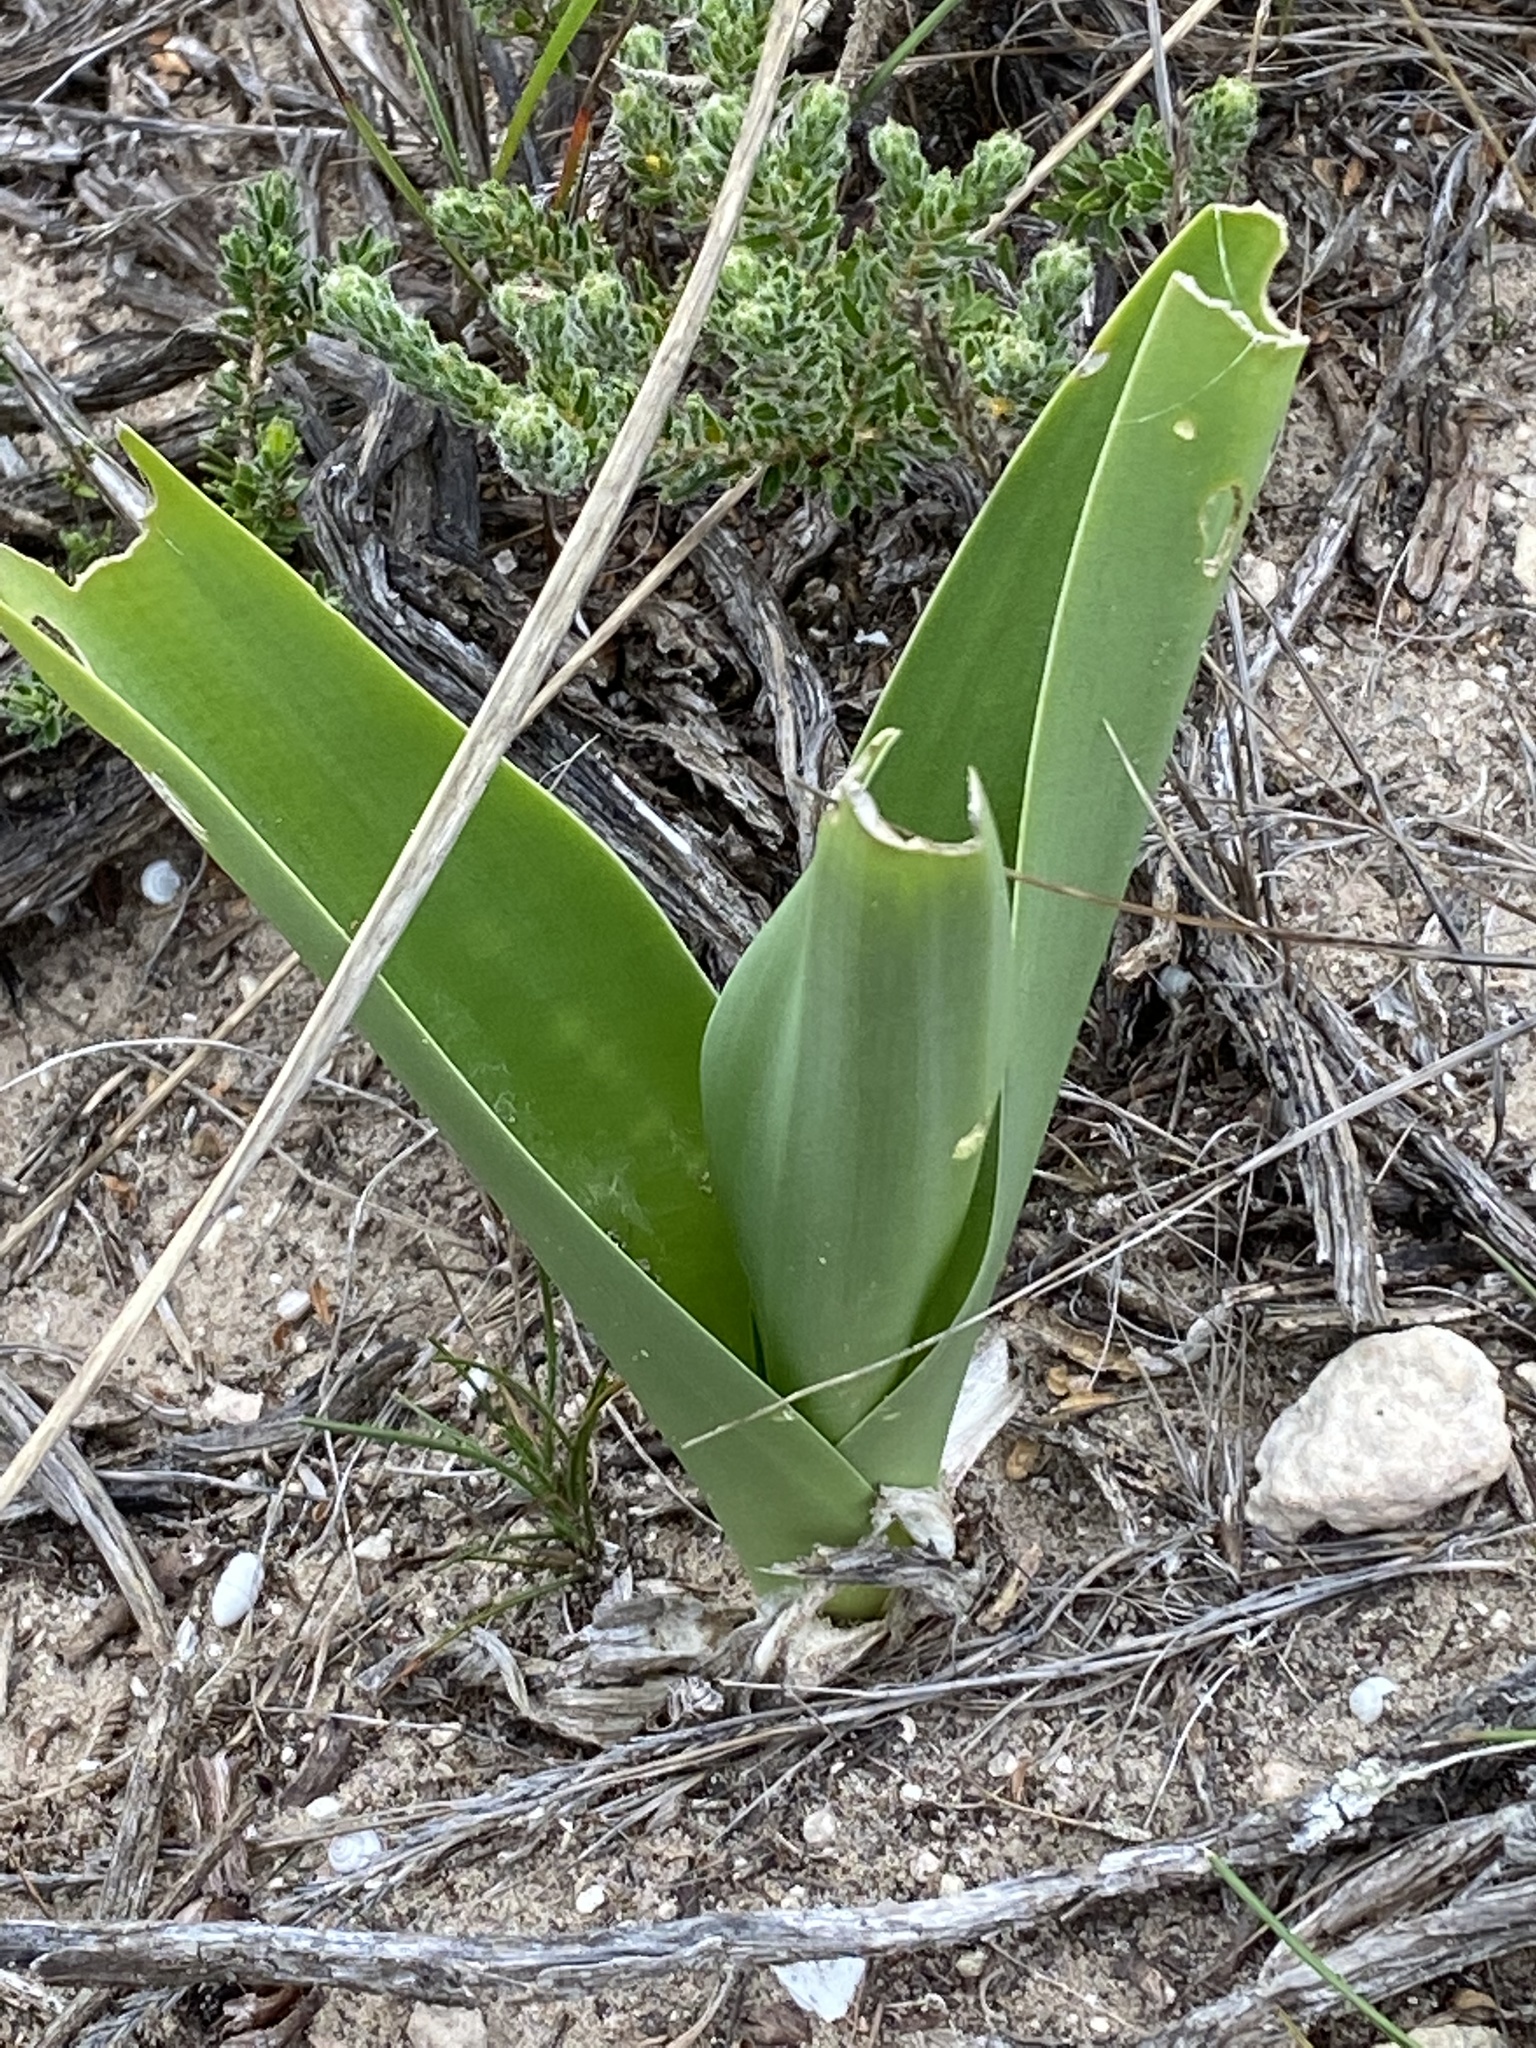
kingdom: Plantae
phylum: Tracheophyta
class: Liliopsida
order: Asparagales
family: Asparagaceae
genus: Drimia
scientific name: Drimia capensis
